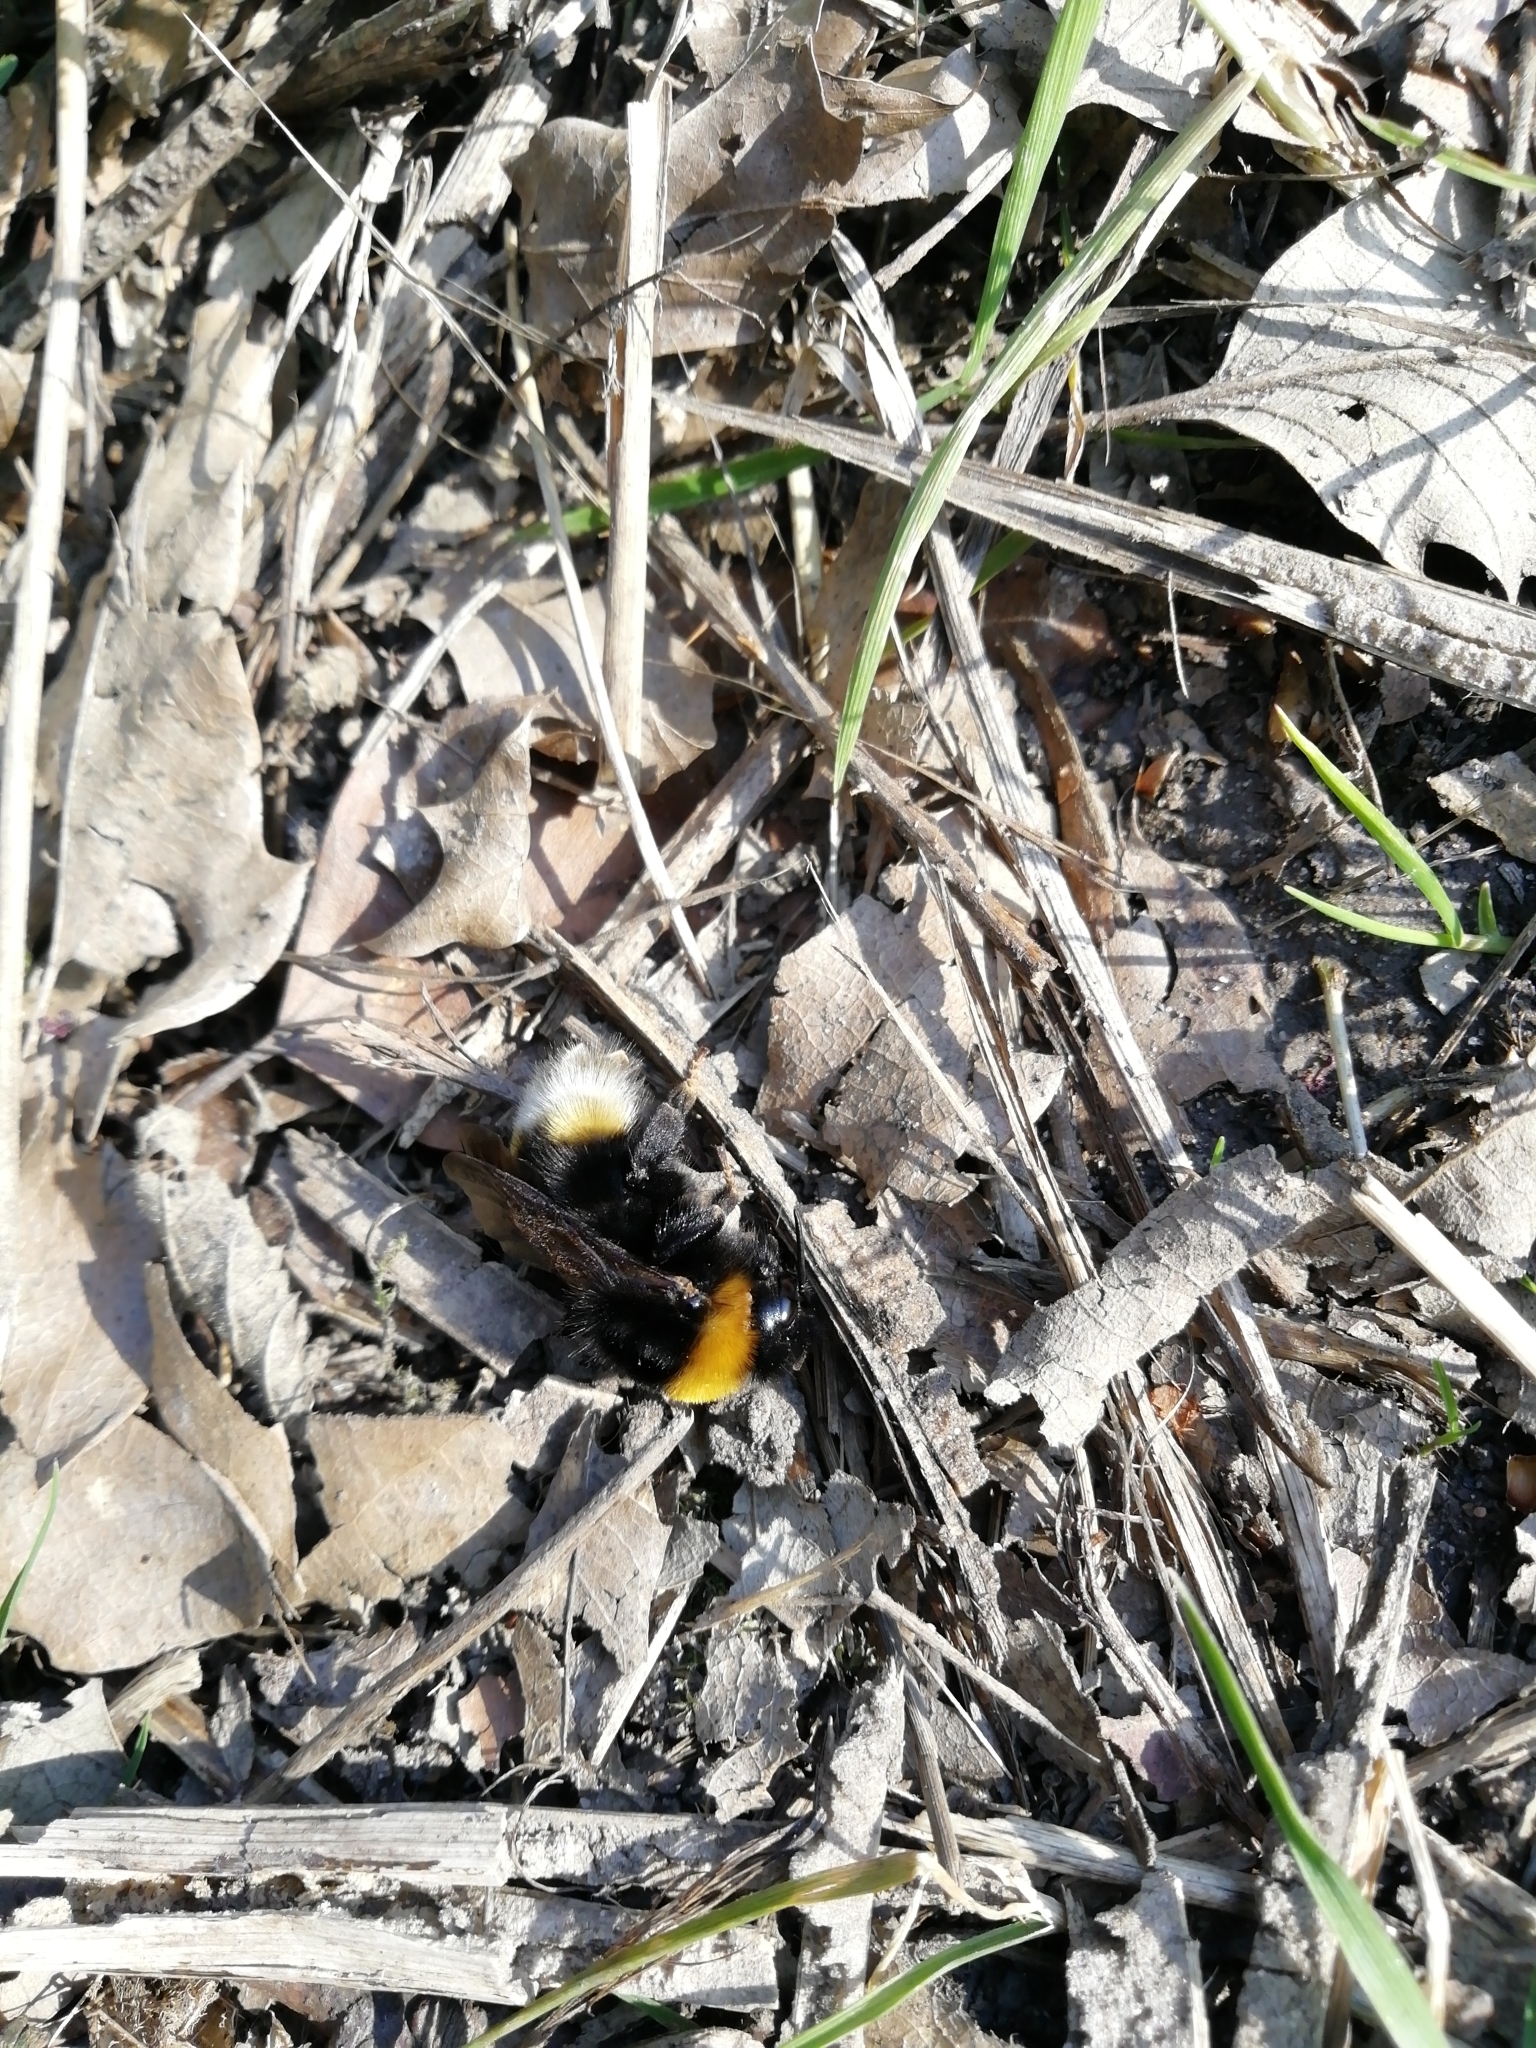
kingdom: Animalia
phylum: Arthropoda
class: Insecta
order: Hymenoptera
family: Apidae
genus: Bombus
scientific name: Bombus vestalis
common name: Vestal cuckoo bee
